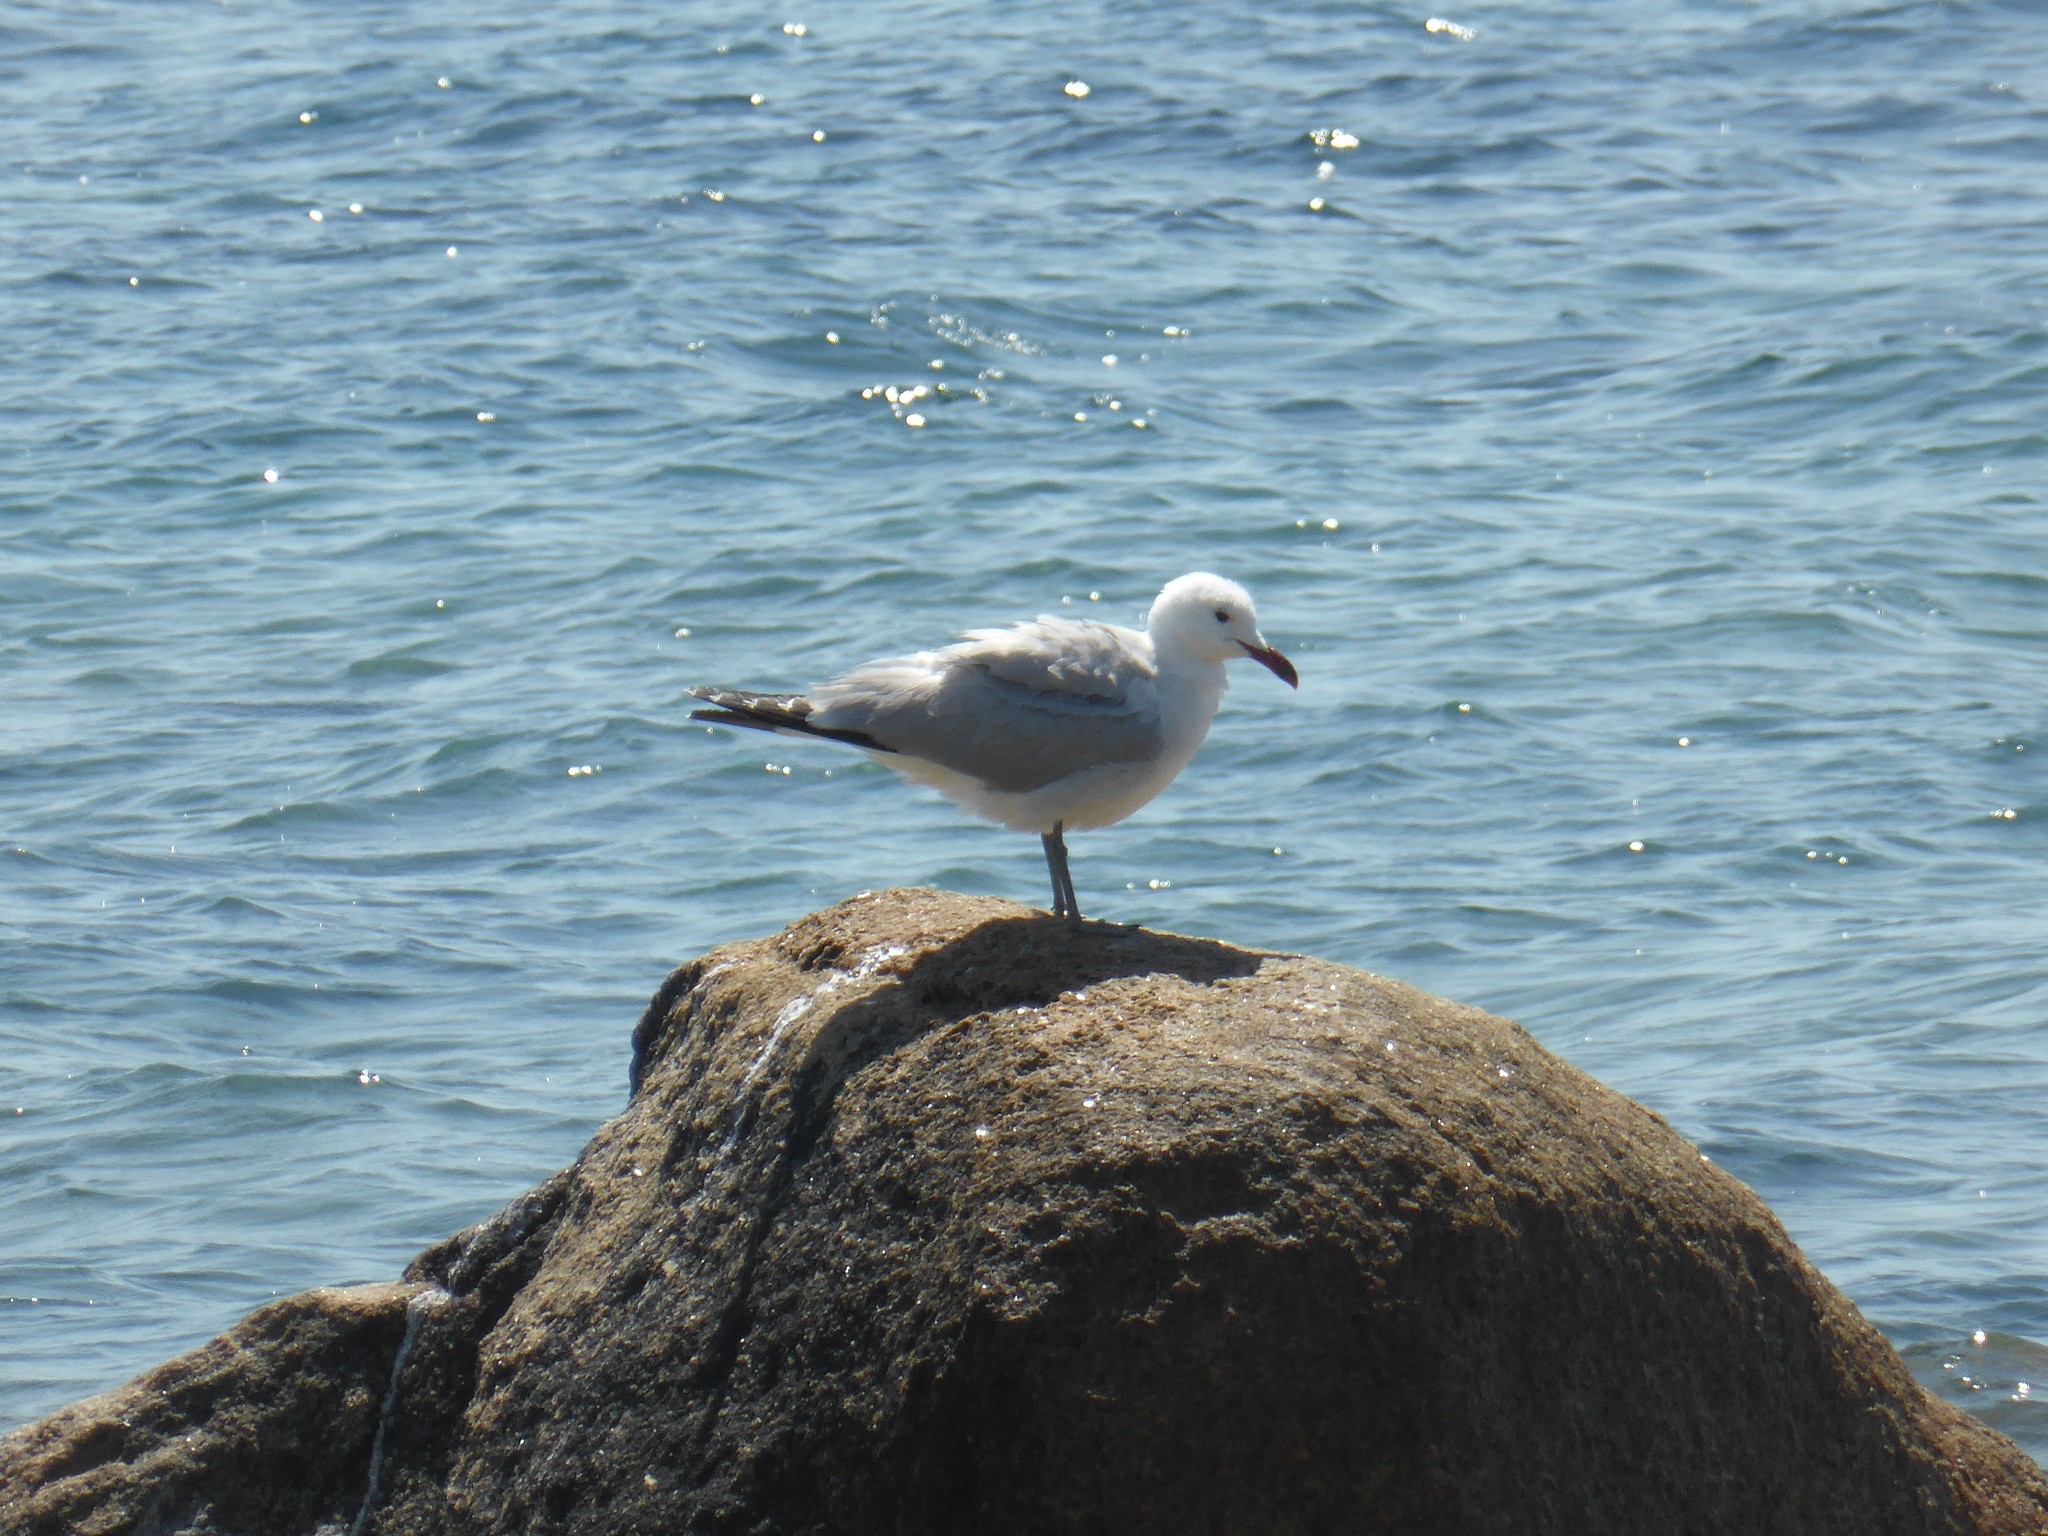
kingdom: Animalia
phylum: Chordata
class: Aves
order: Charadriiformes
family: Laridae
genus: Ichthyaetus
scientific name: Ichthyaetus audouinii
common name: Audouin's gull
